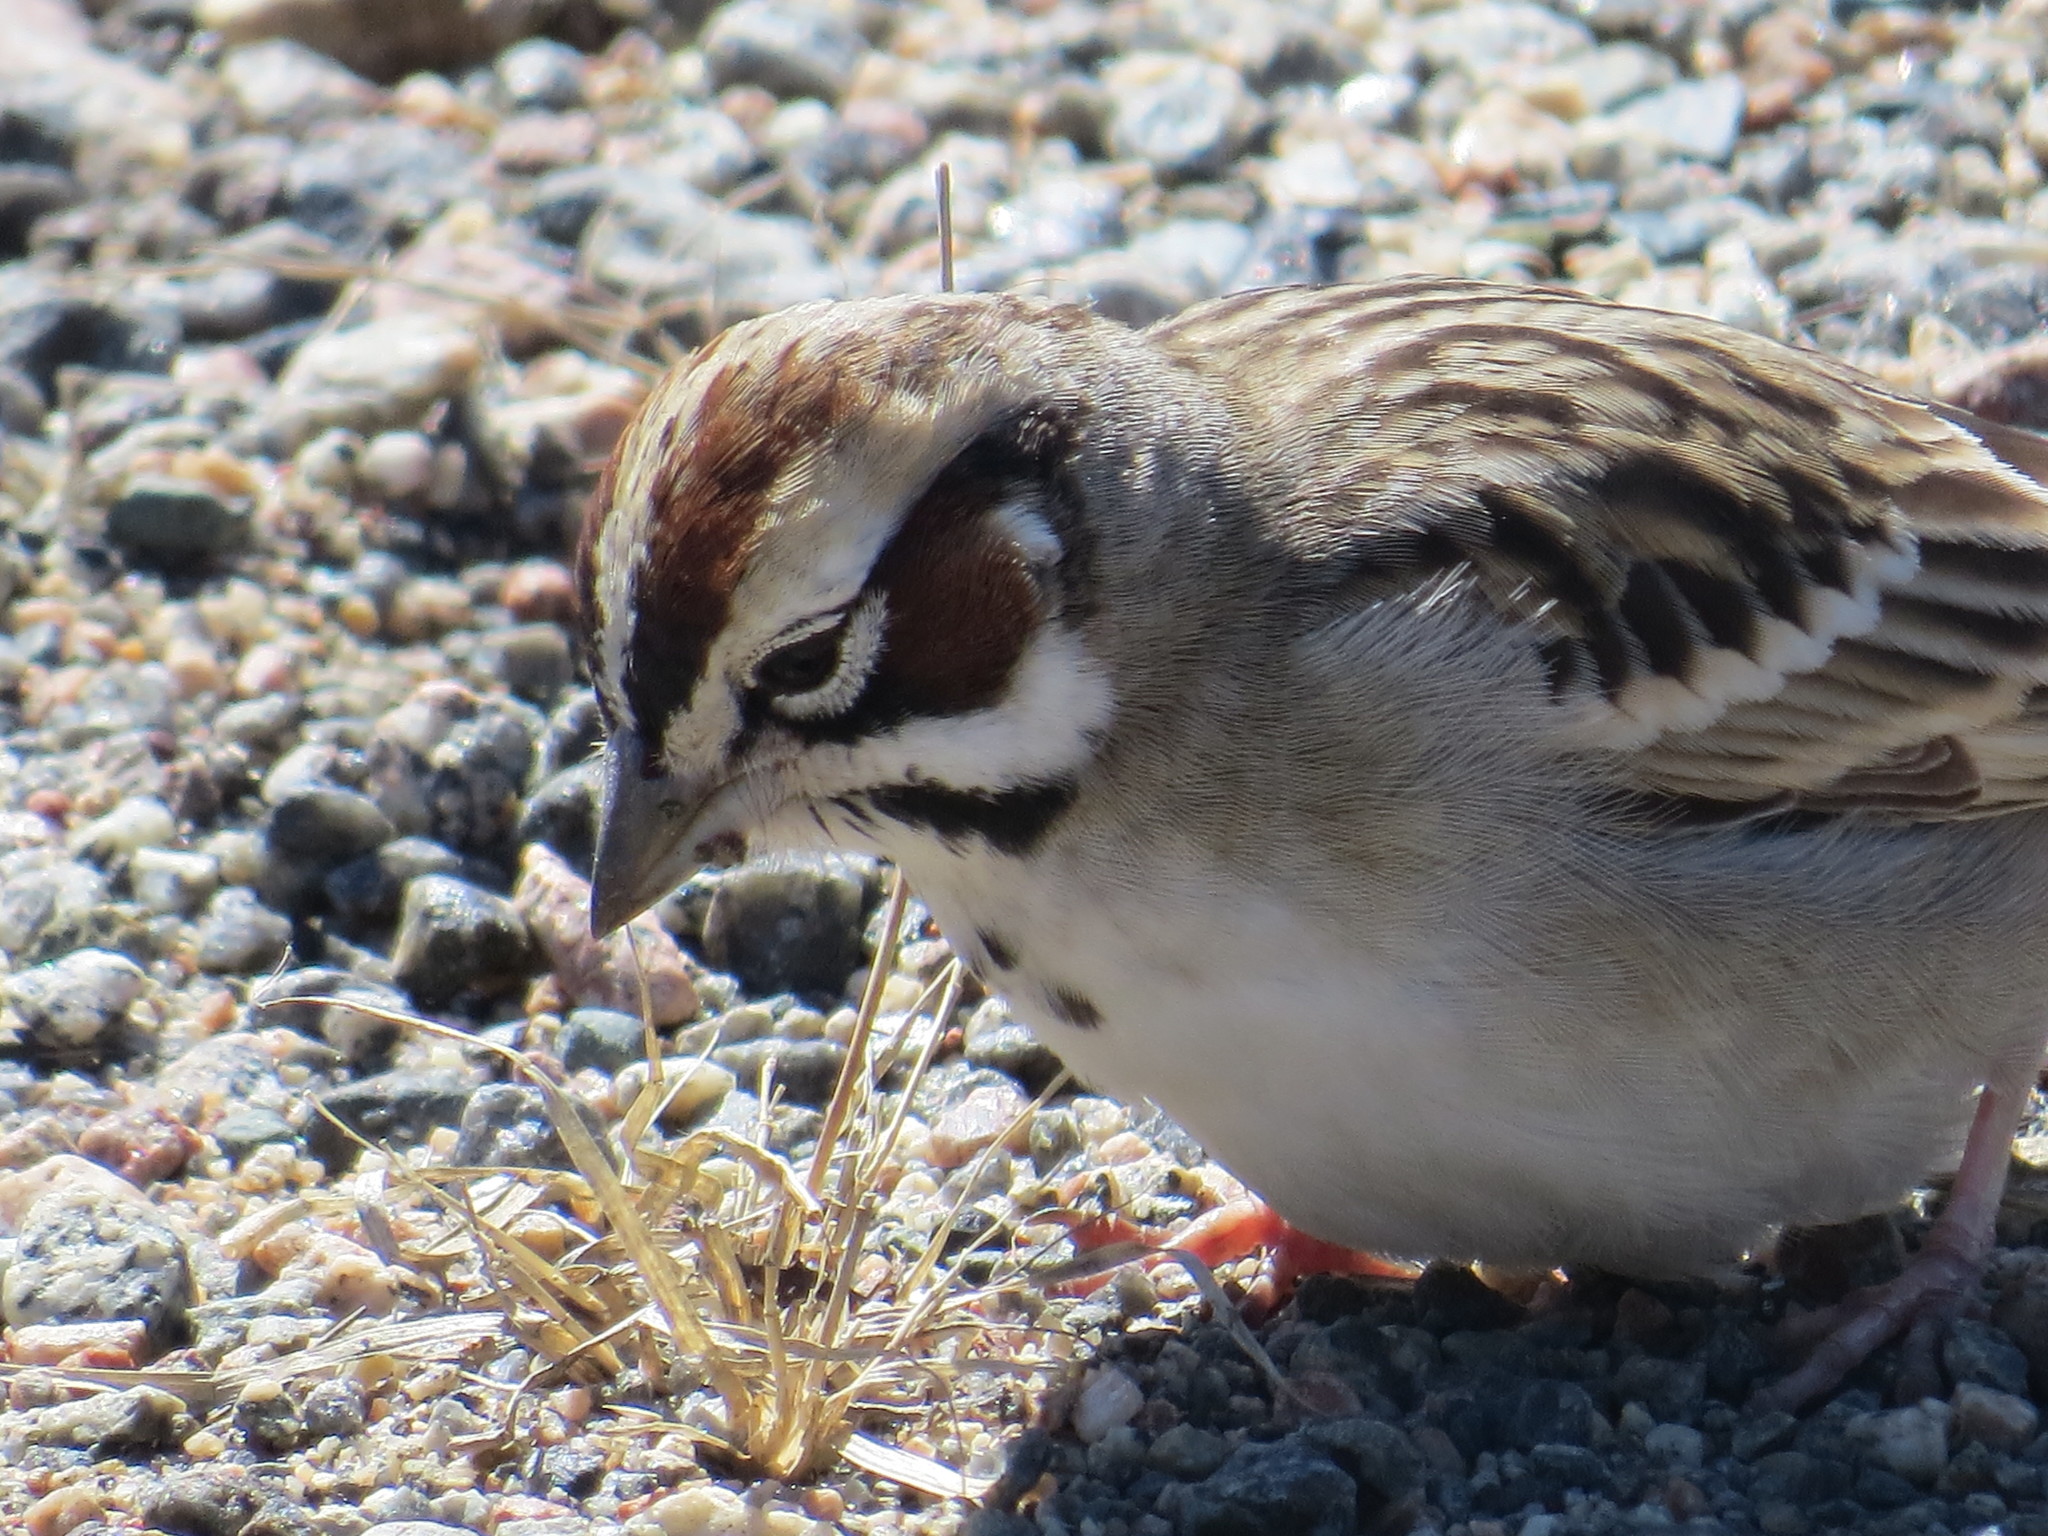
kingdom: Animalia
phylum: Chordata
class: Aves
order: Passeriformes
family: Passerellidae
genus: Chondestes
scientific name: Chondestes grammacus
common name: Lark sparrow
